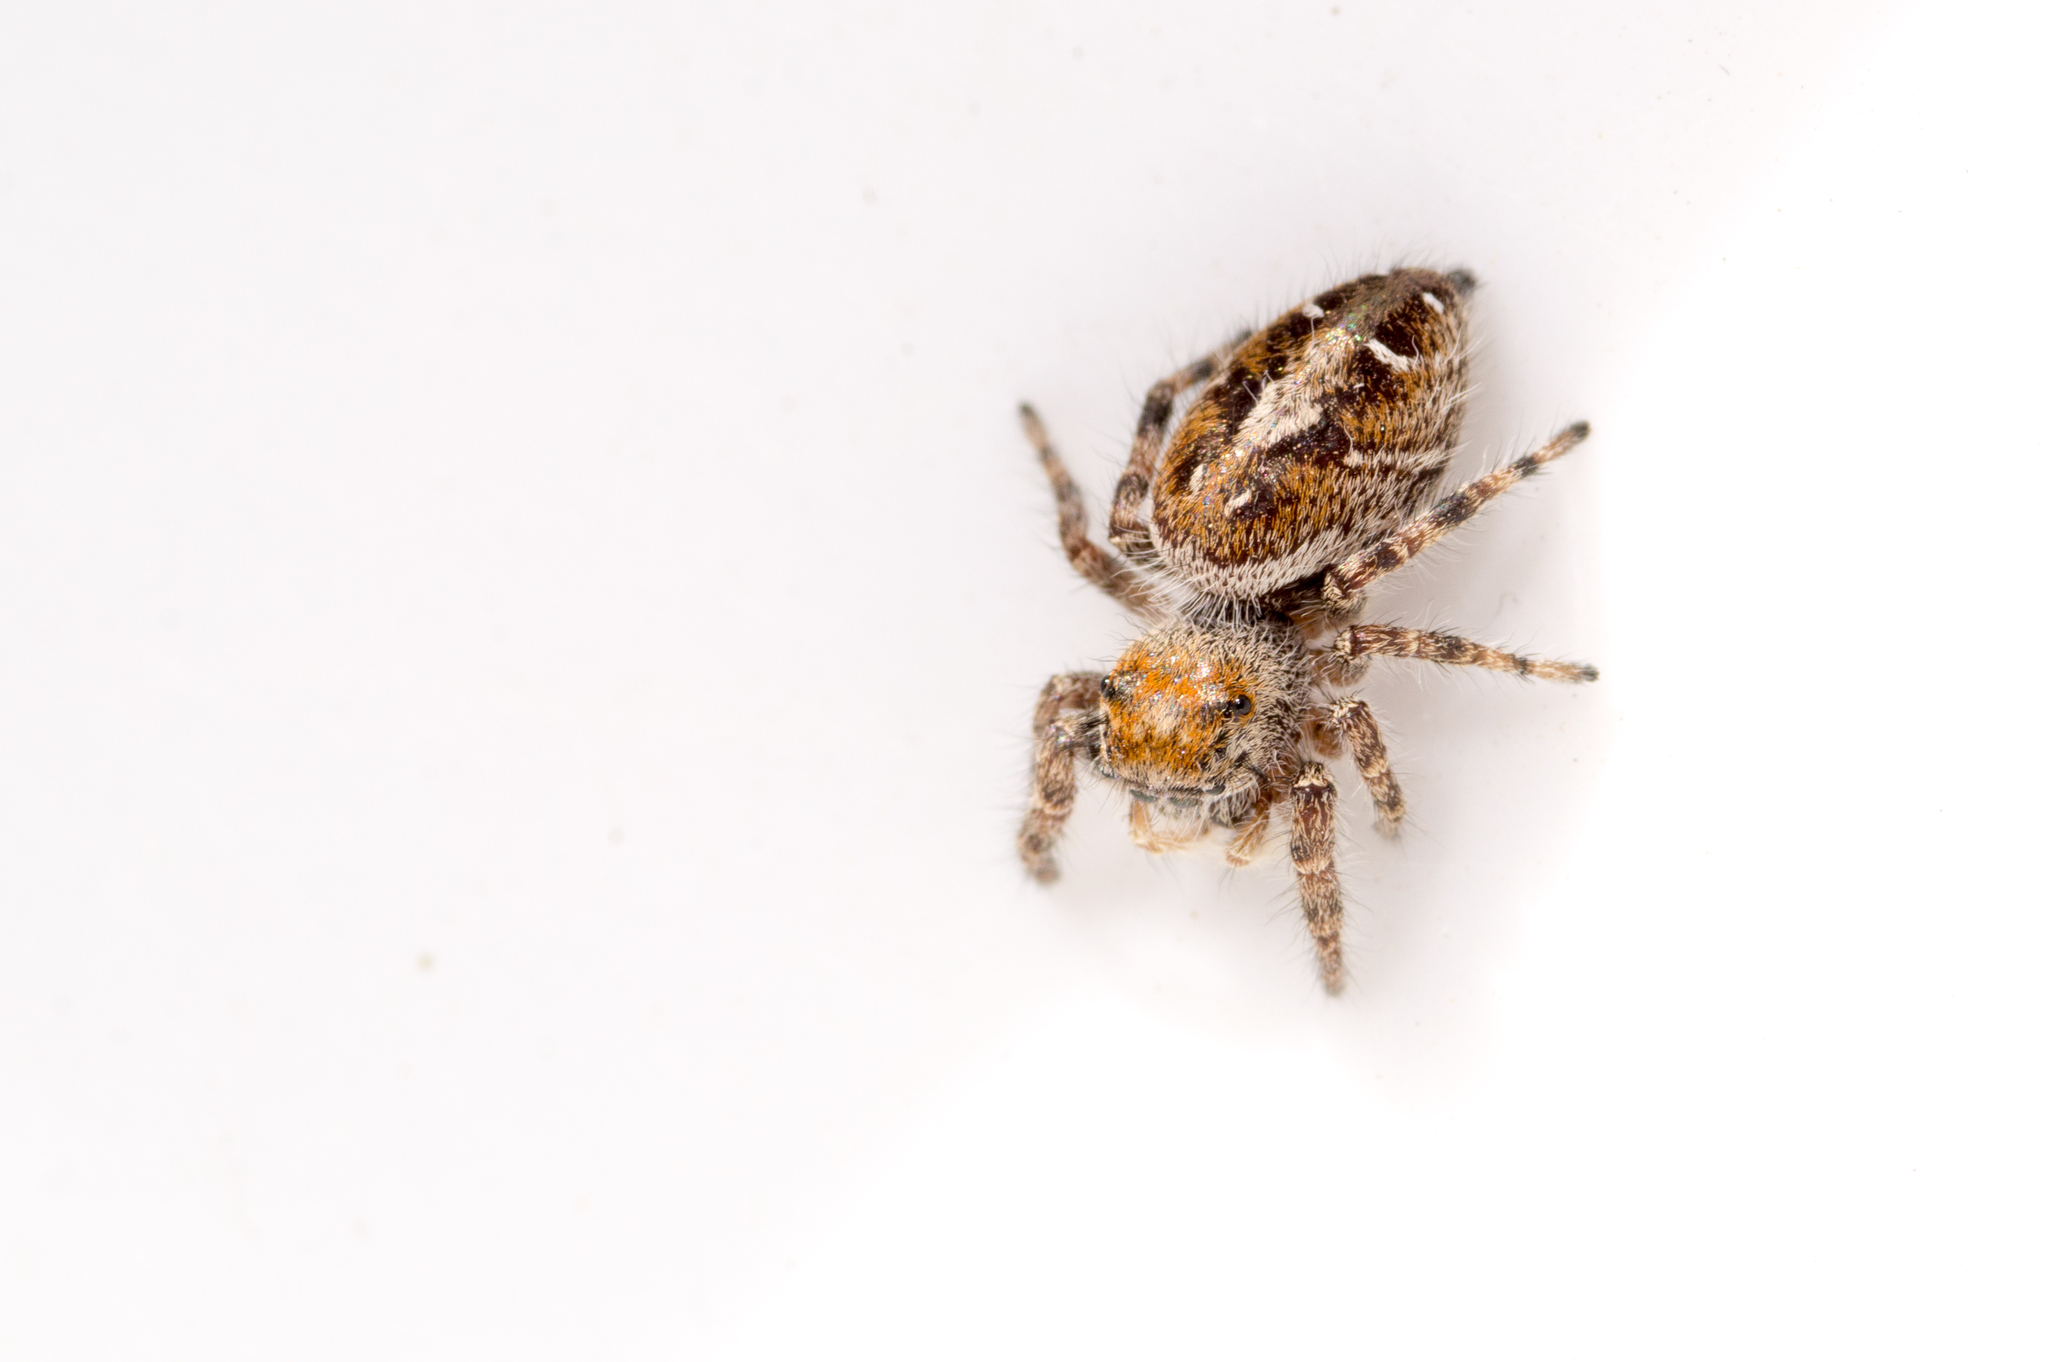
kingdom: Animalia
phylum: Arthropoda
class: Arachnida
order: Araneae
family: Salticidae
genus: Phidippus
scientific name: Phidippus comatus
